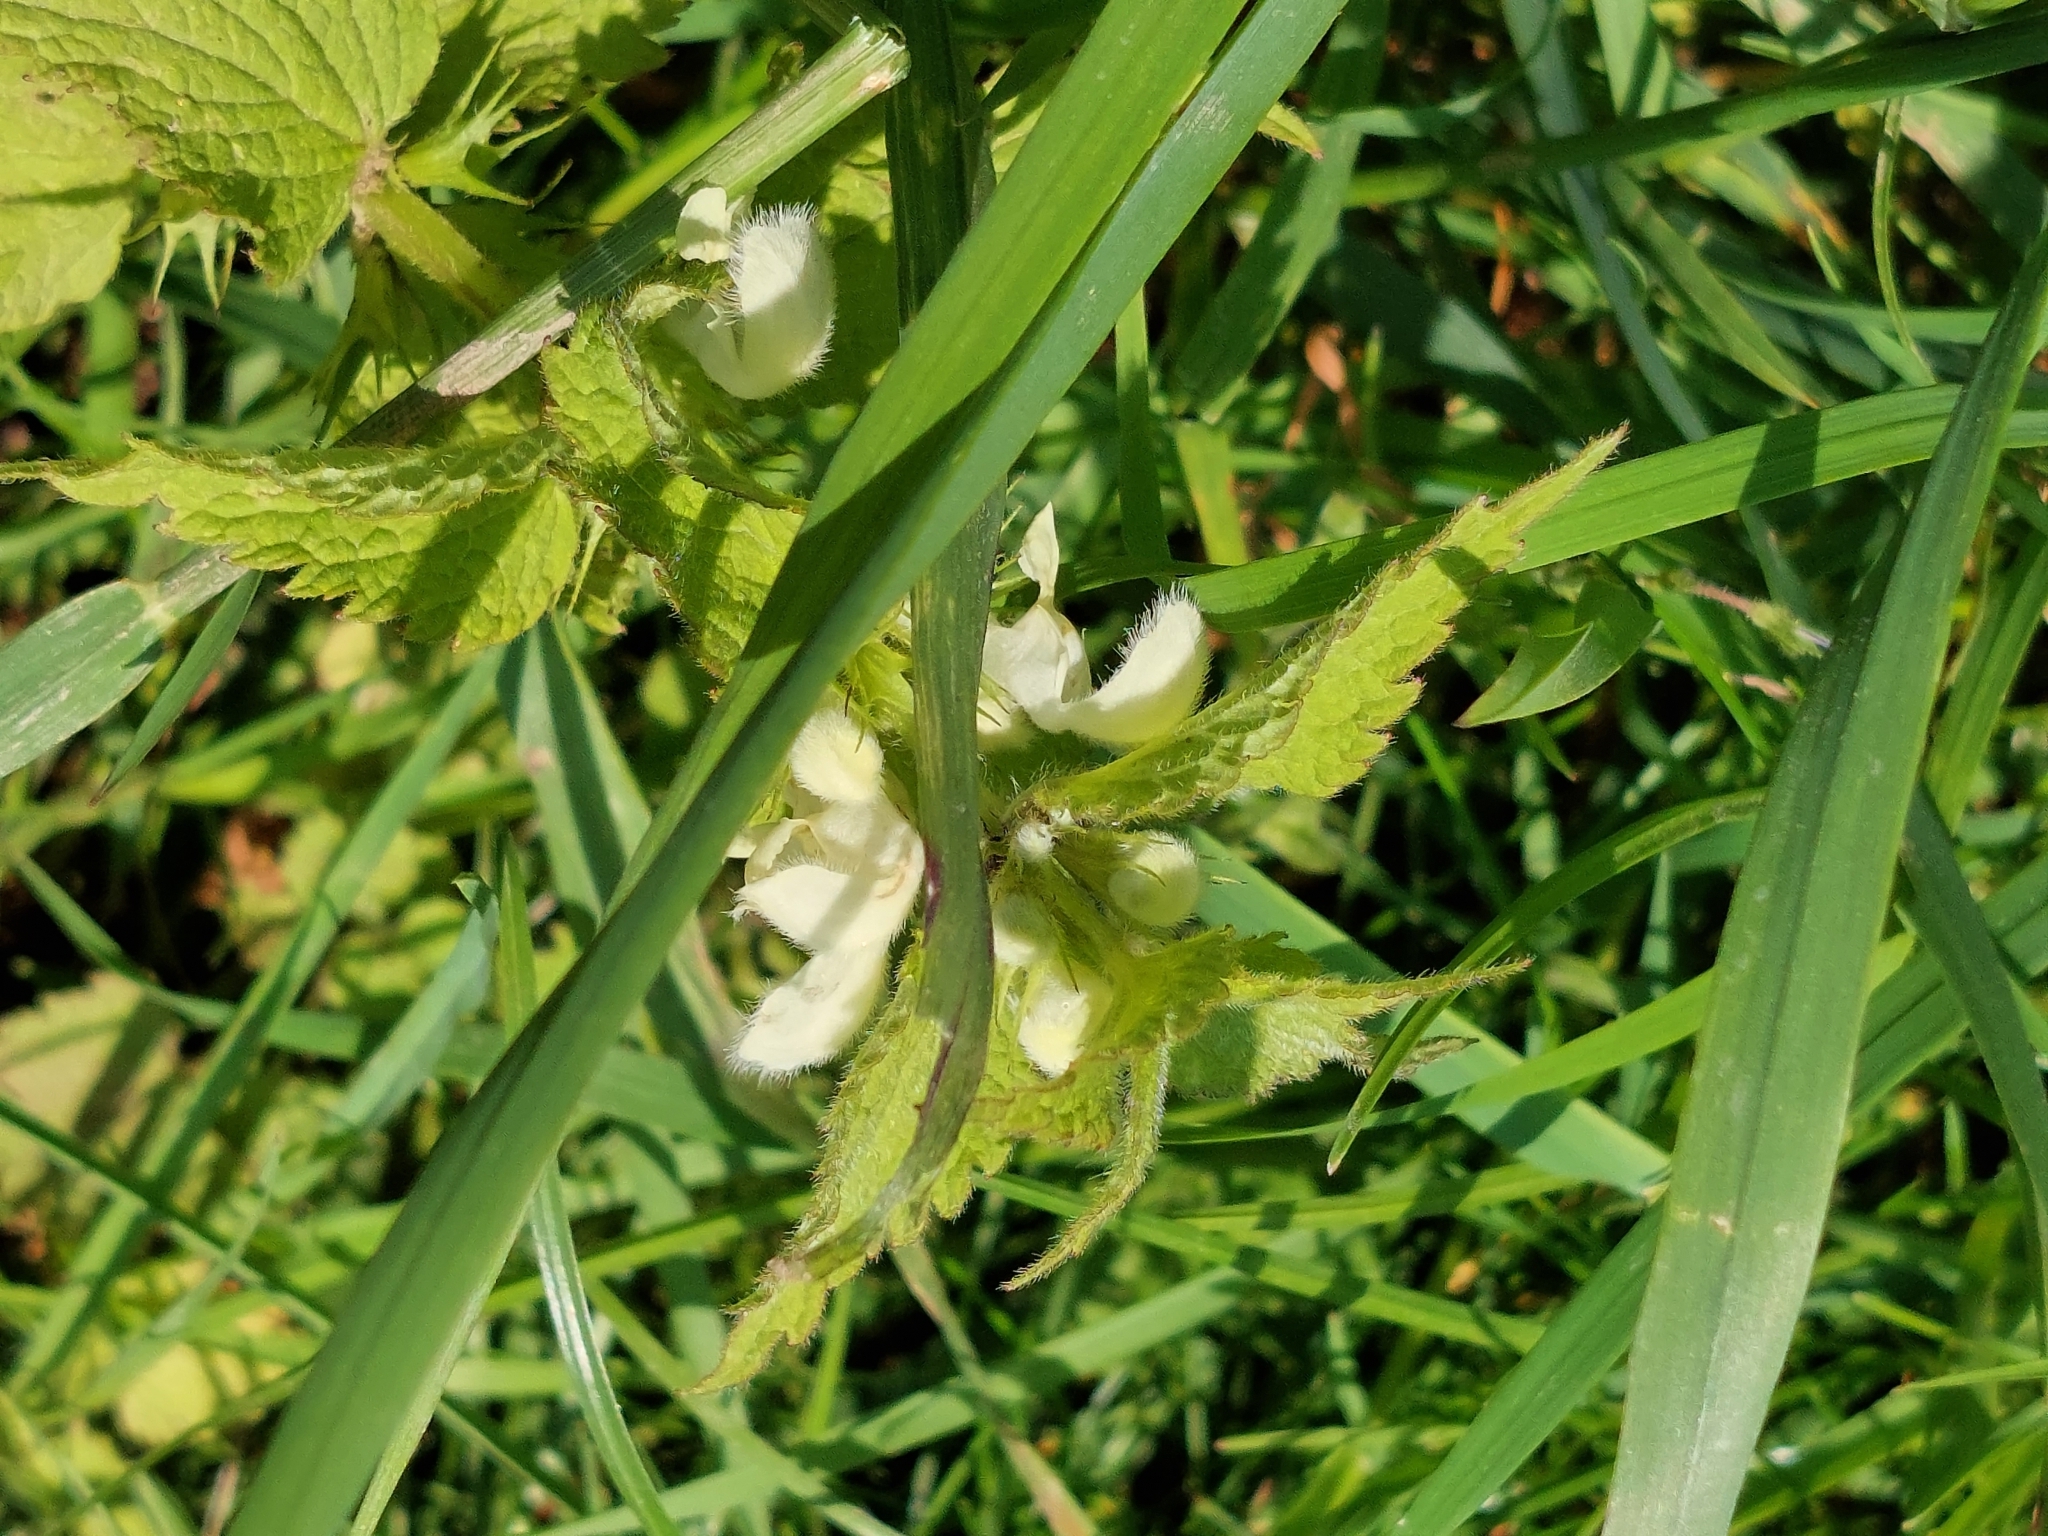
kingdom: Plantae
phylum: Tracheophyta
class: Magnoliopsida
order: Lamiales
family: Lamiaceae
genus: Lamium
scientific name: Lamium album
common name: White dead-nettle
